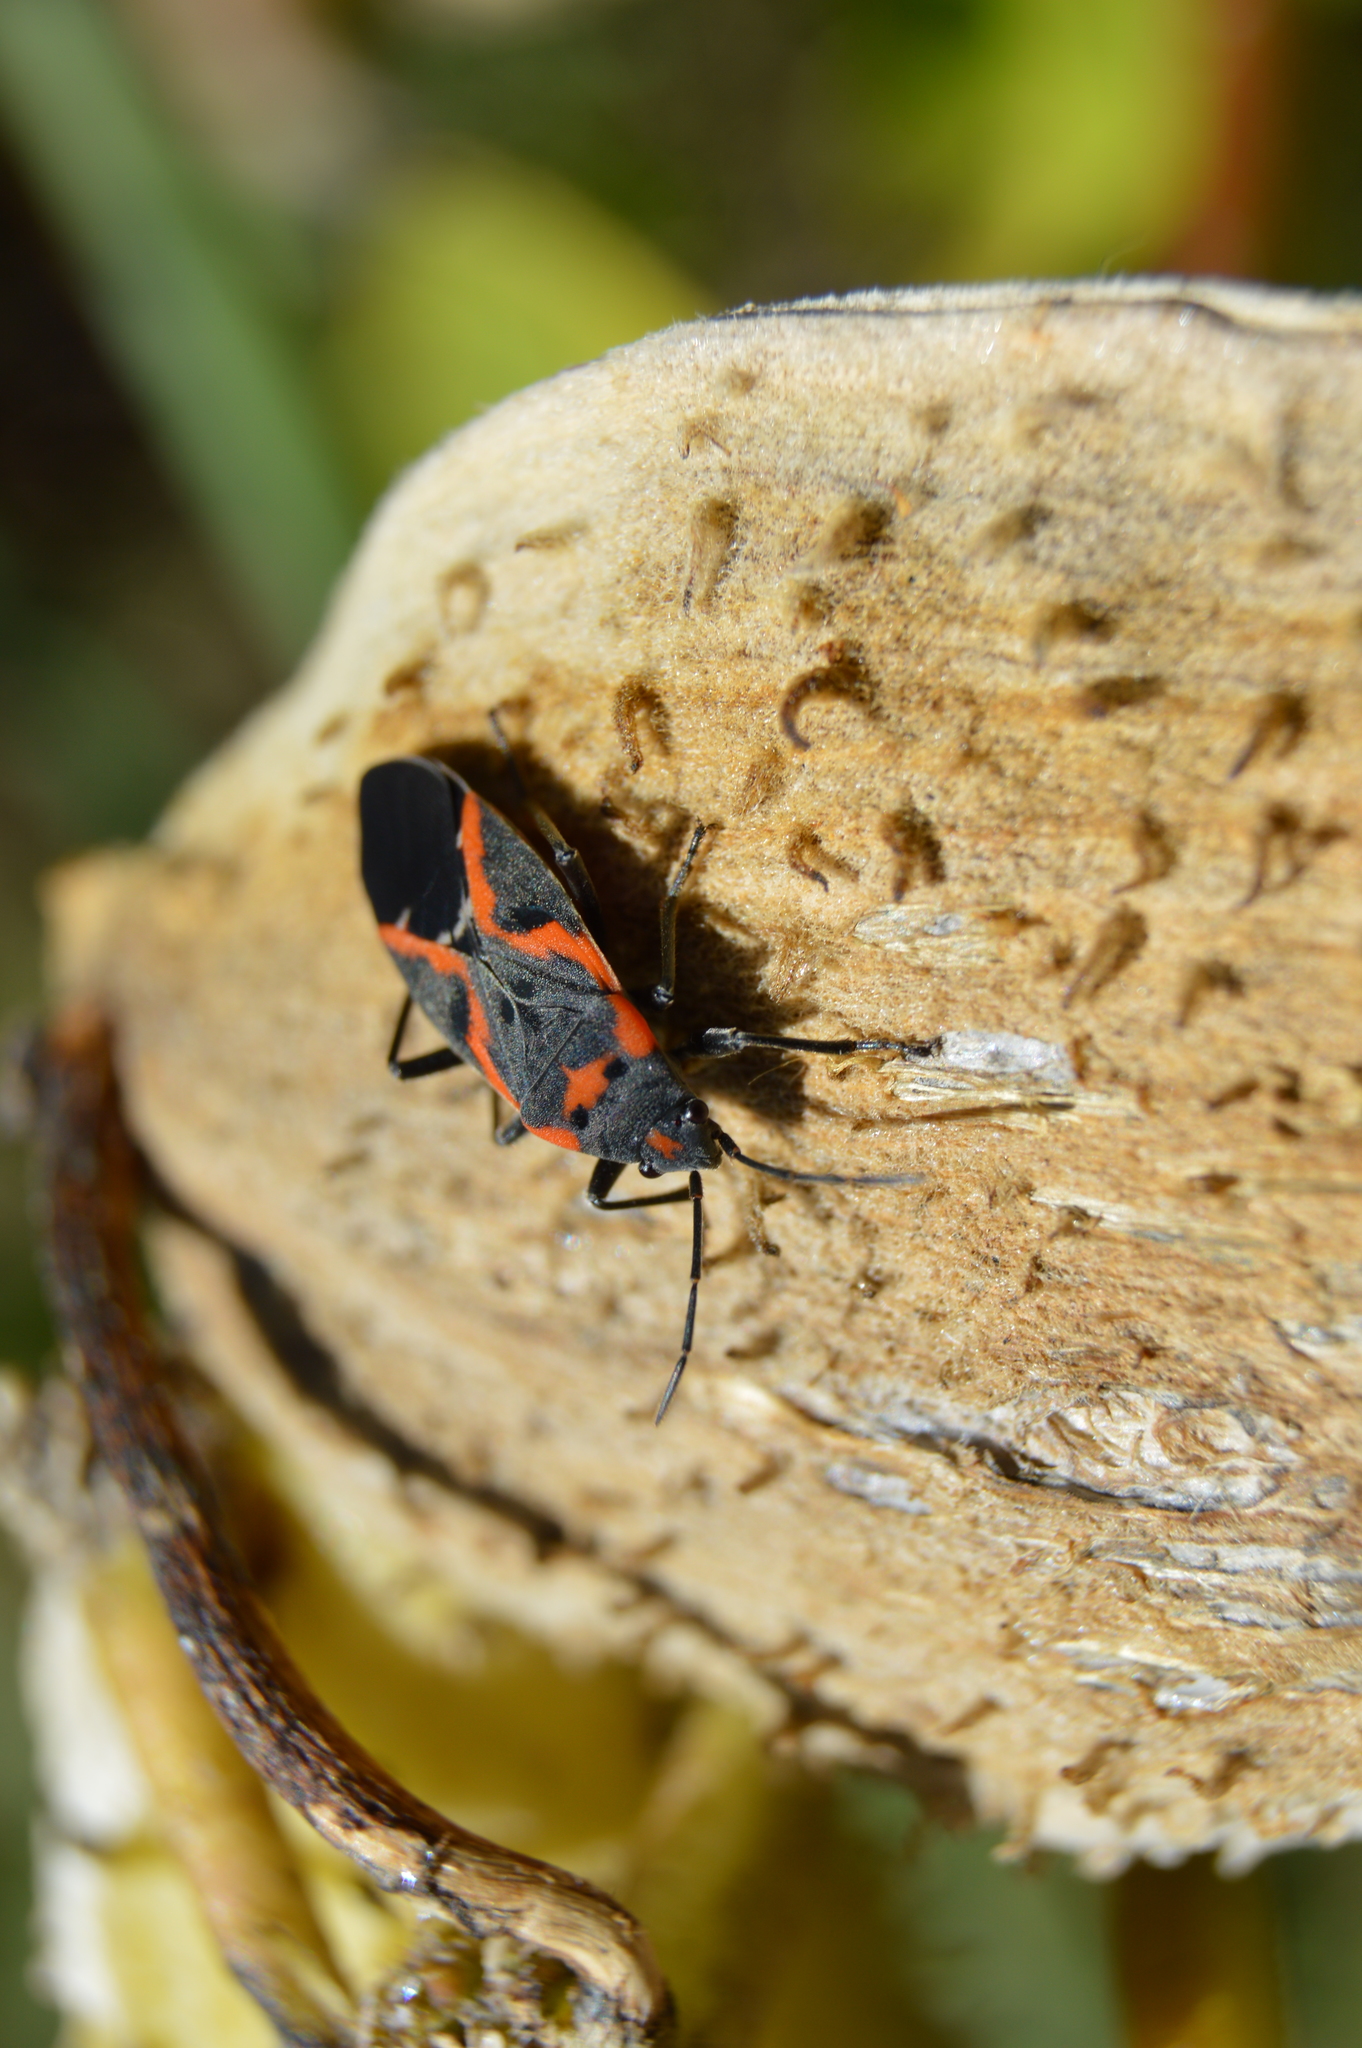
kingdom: Animalia
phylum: Arthropoda
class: Insecta
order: Hemiptera
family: Lygaeidae
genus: Lygaeus
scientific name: Lygaeus kalmii
